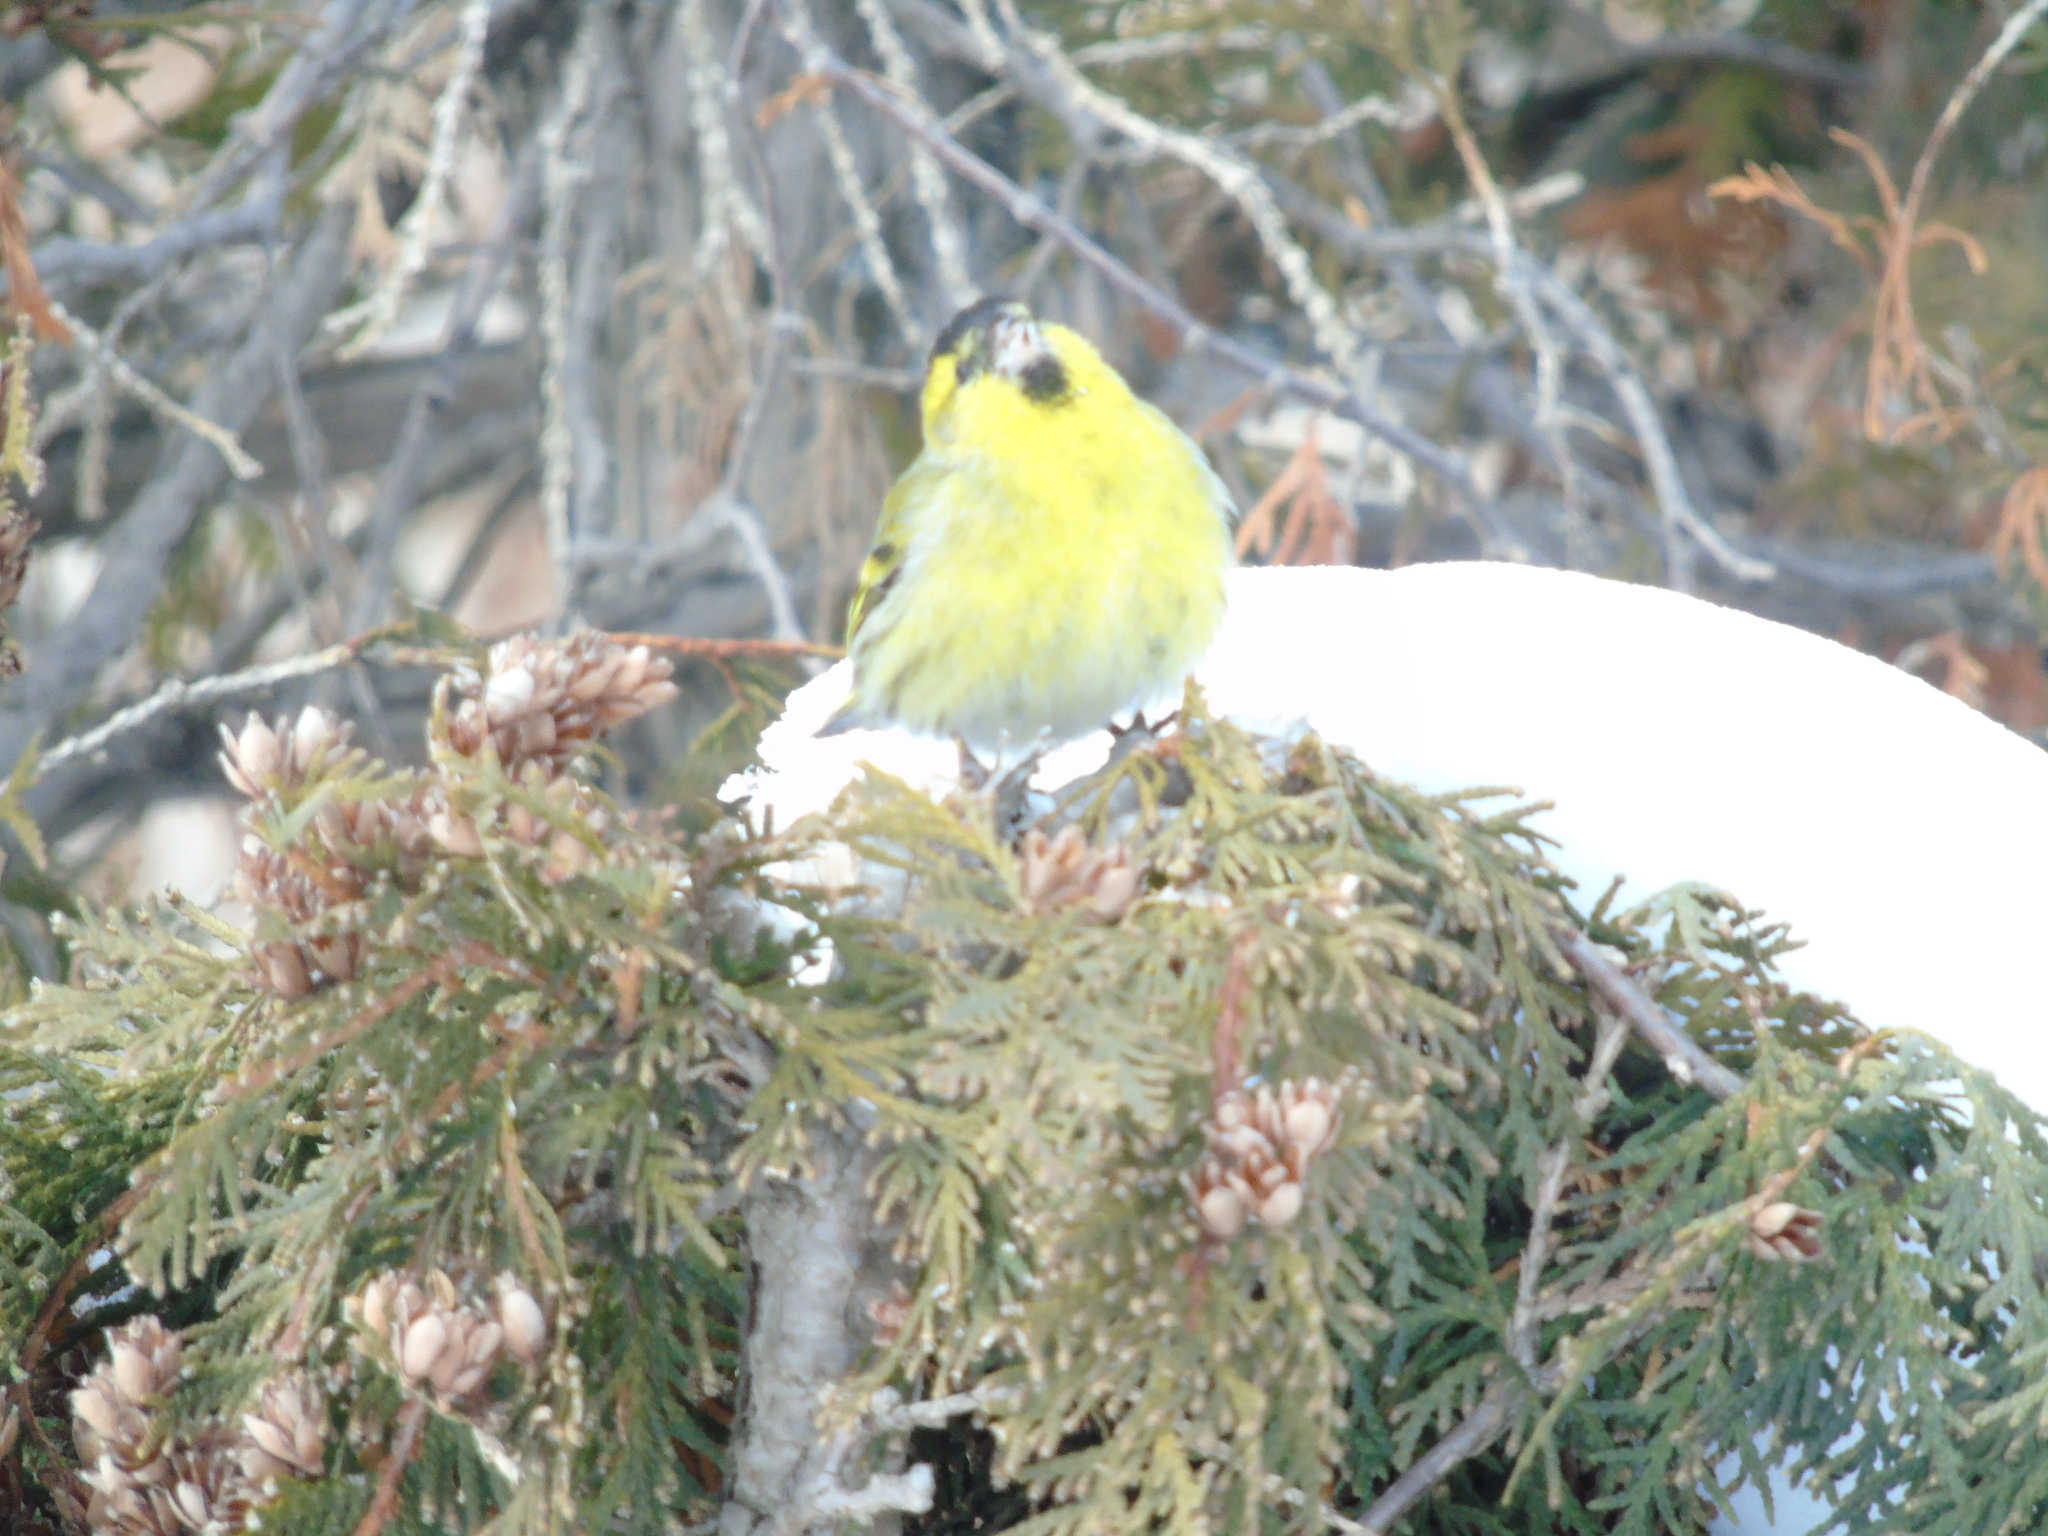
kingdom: Animalia
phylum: Chordata
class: Aves
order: Passeriformes
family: Fringillidae
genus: Spinus
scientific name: Spinus spinus
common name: Eurasian siskin
